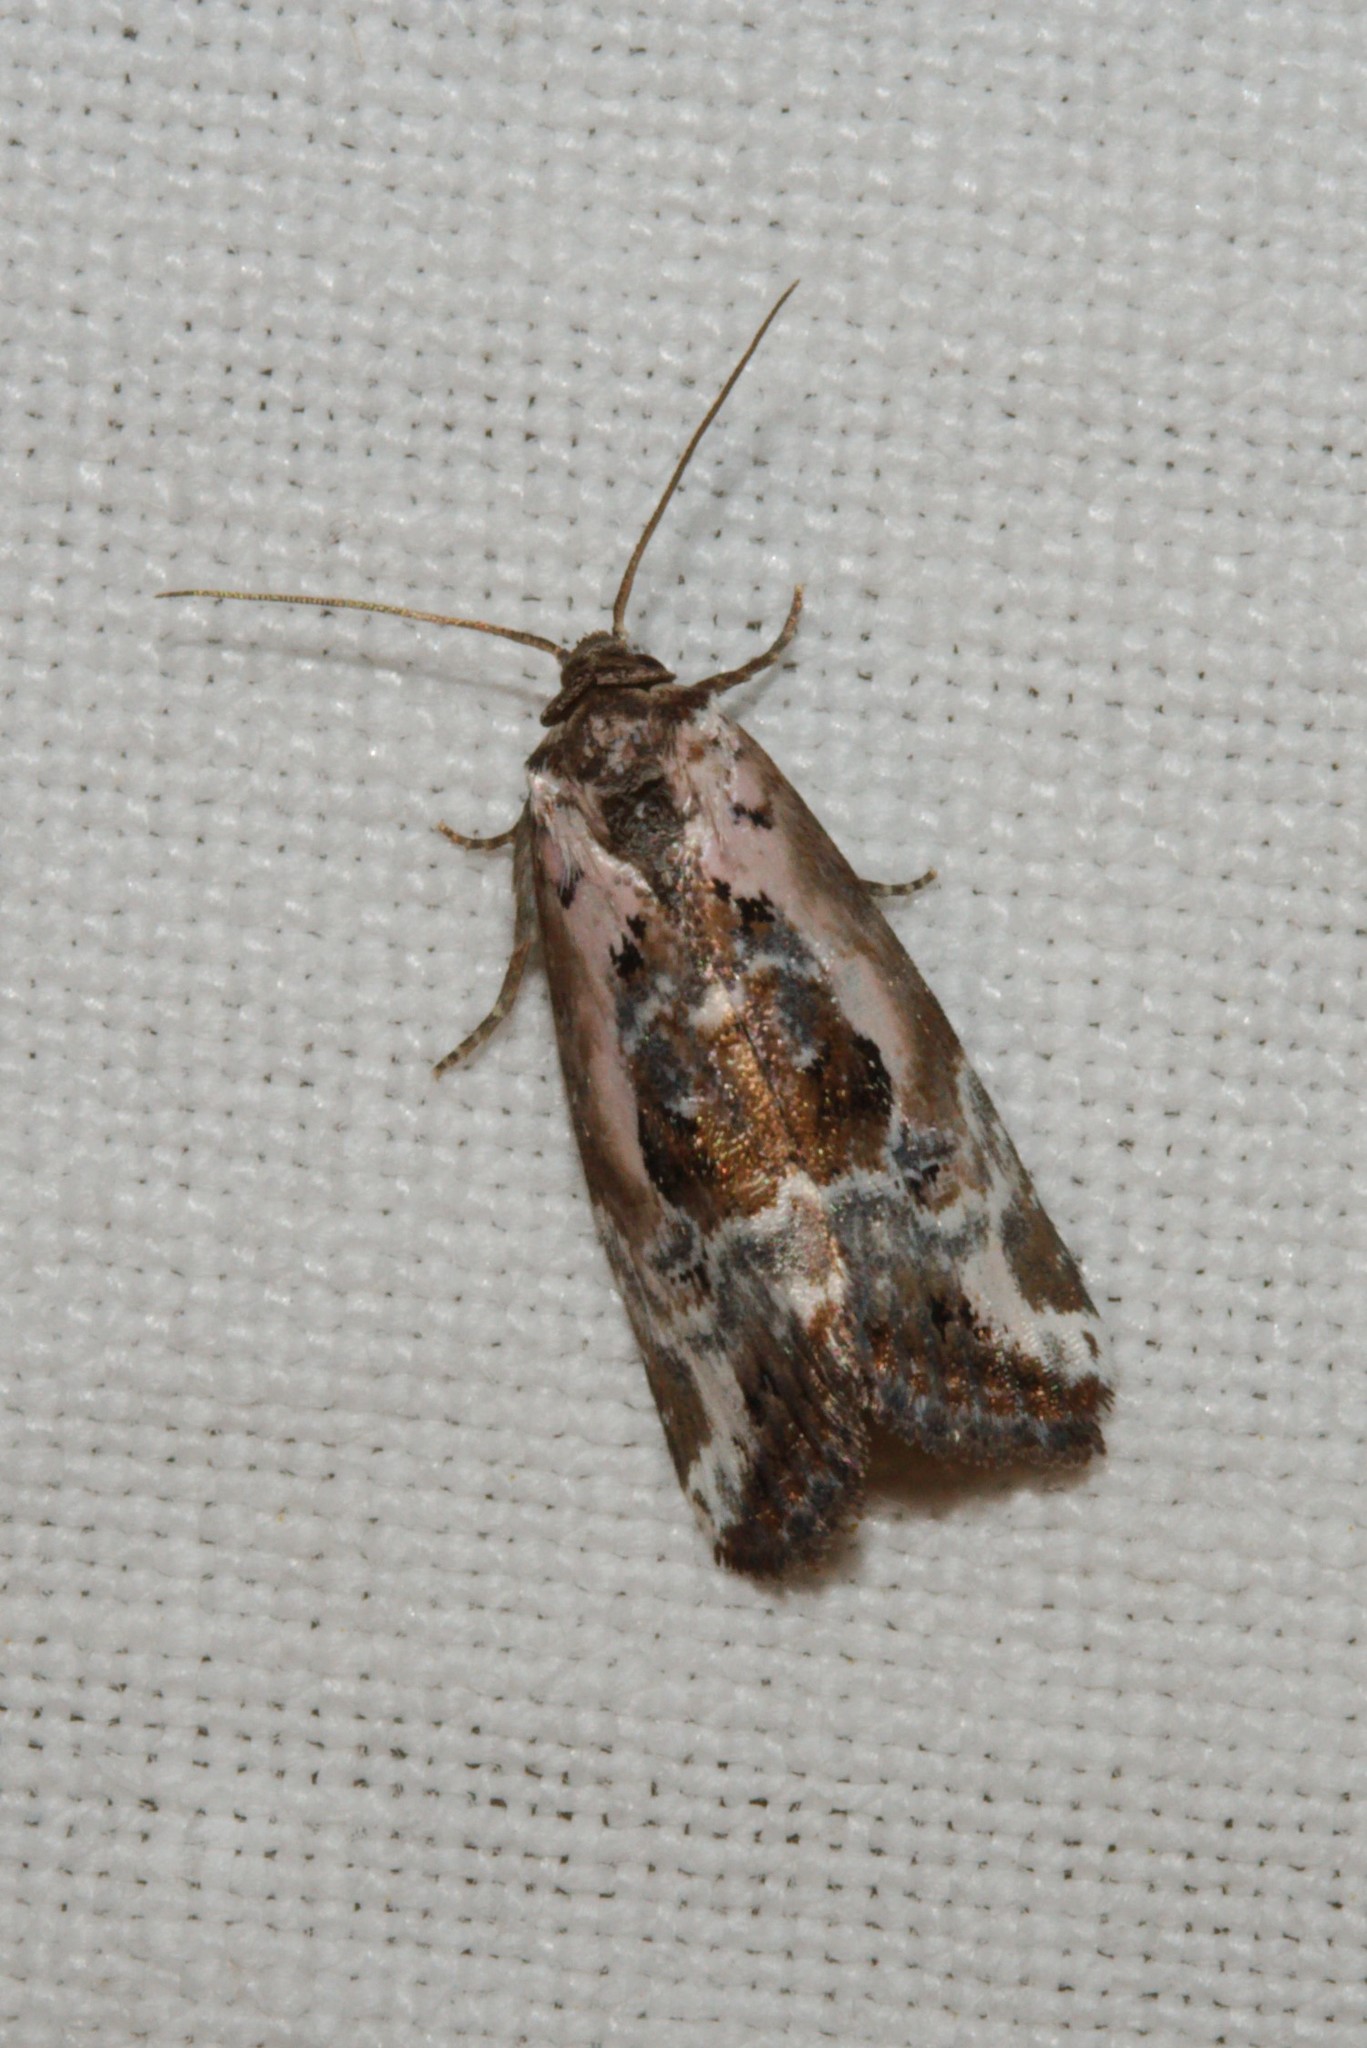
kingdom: Animalia
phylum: Arthropoda
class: Insecta
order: Lepidoptera
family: Noctuidae
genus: Elaphria
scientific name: Elaphria venustula
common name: Rosy marbled
